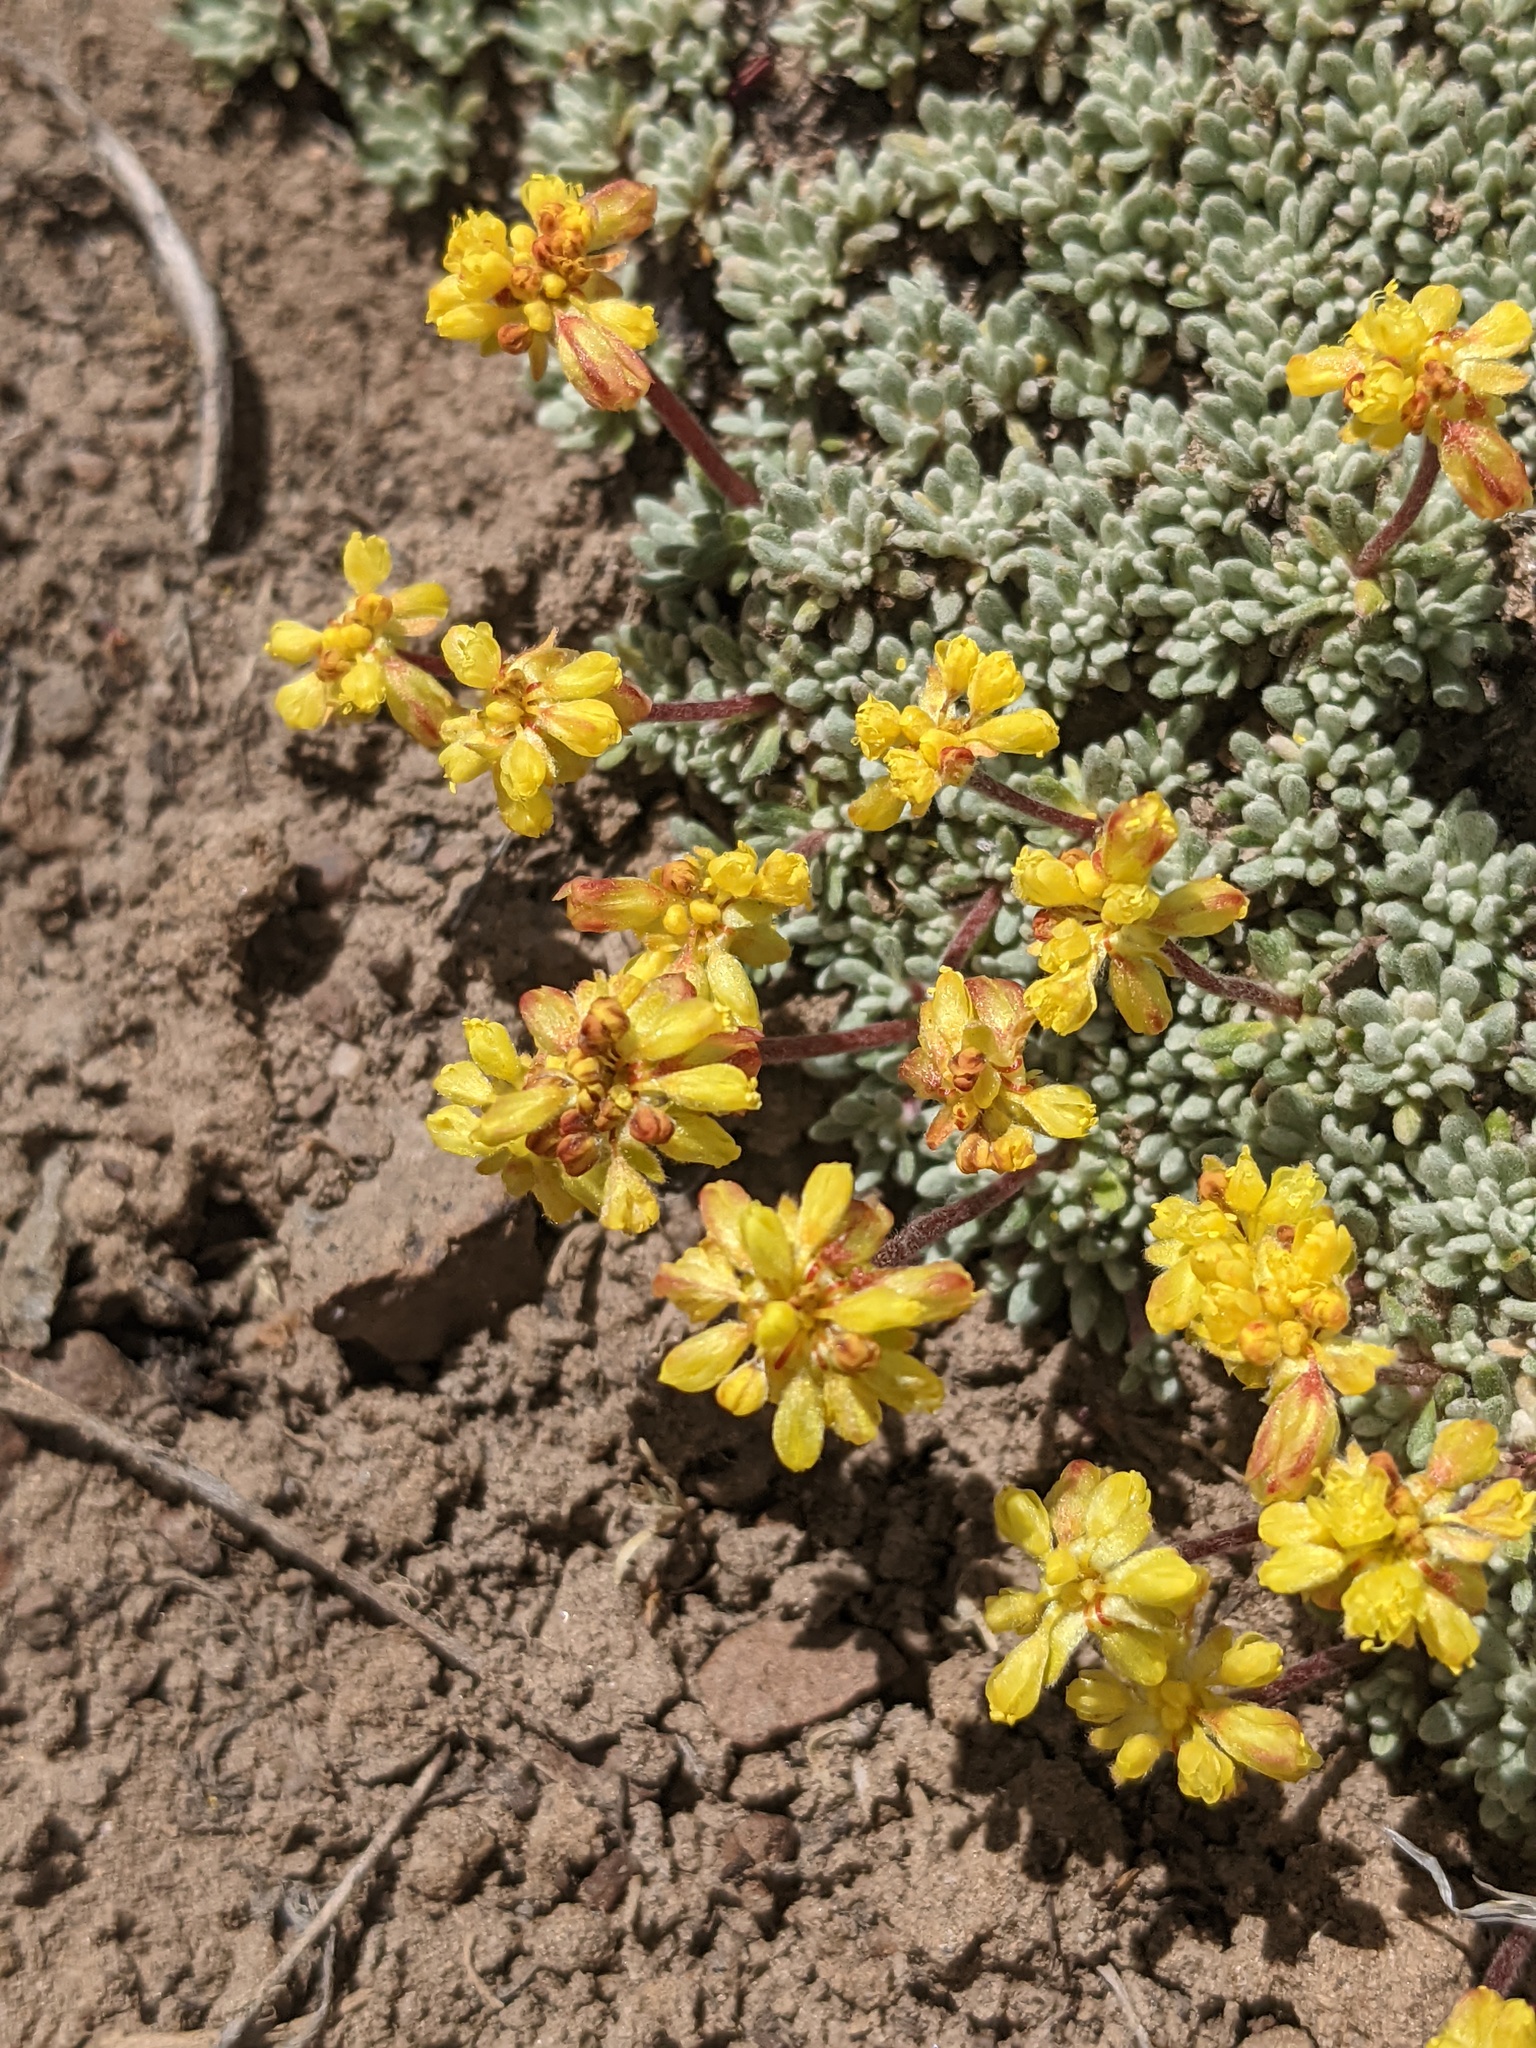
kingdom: Plantae
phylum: Tracheophyta
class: Magnoliopsida
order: Caryophyllales
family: Polygonaceae
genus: Eriogonum
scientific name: Eriogonum caespitosum
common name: Matted wild buckwheat
